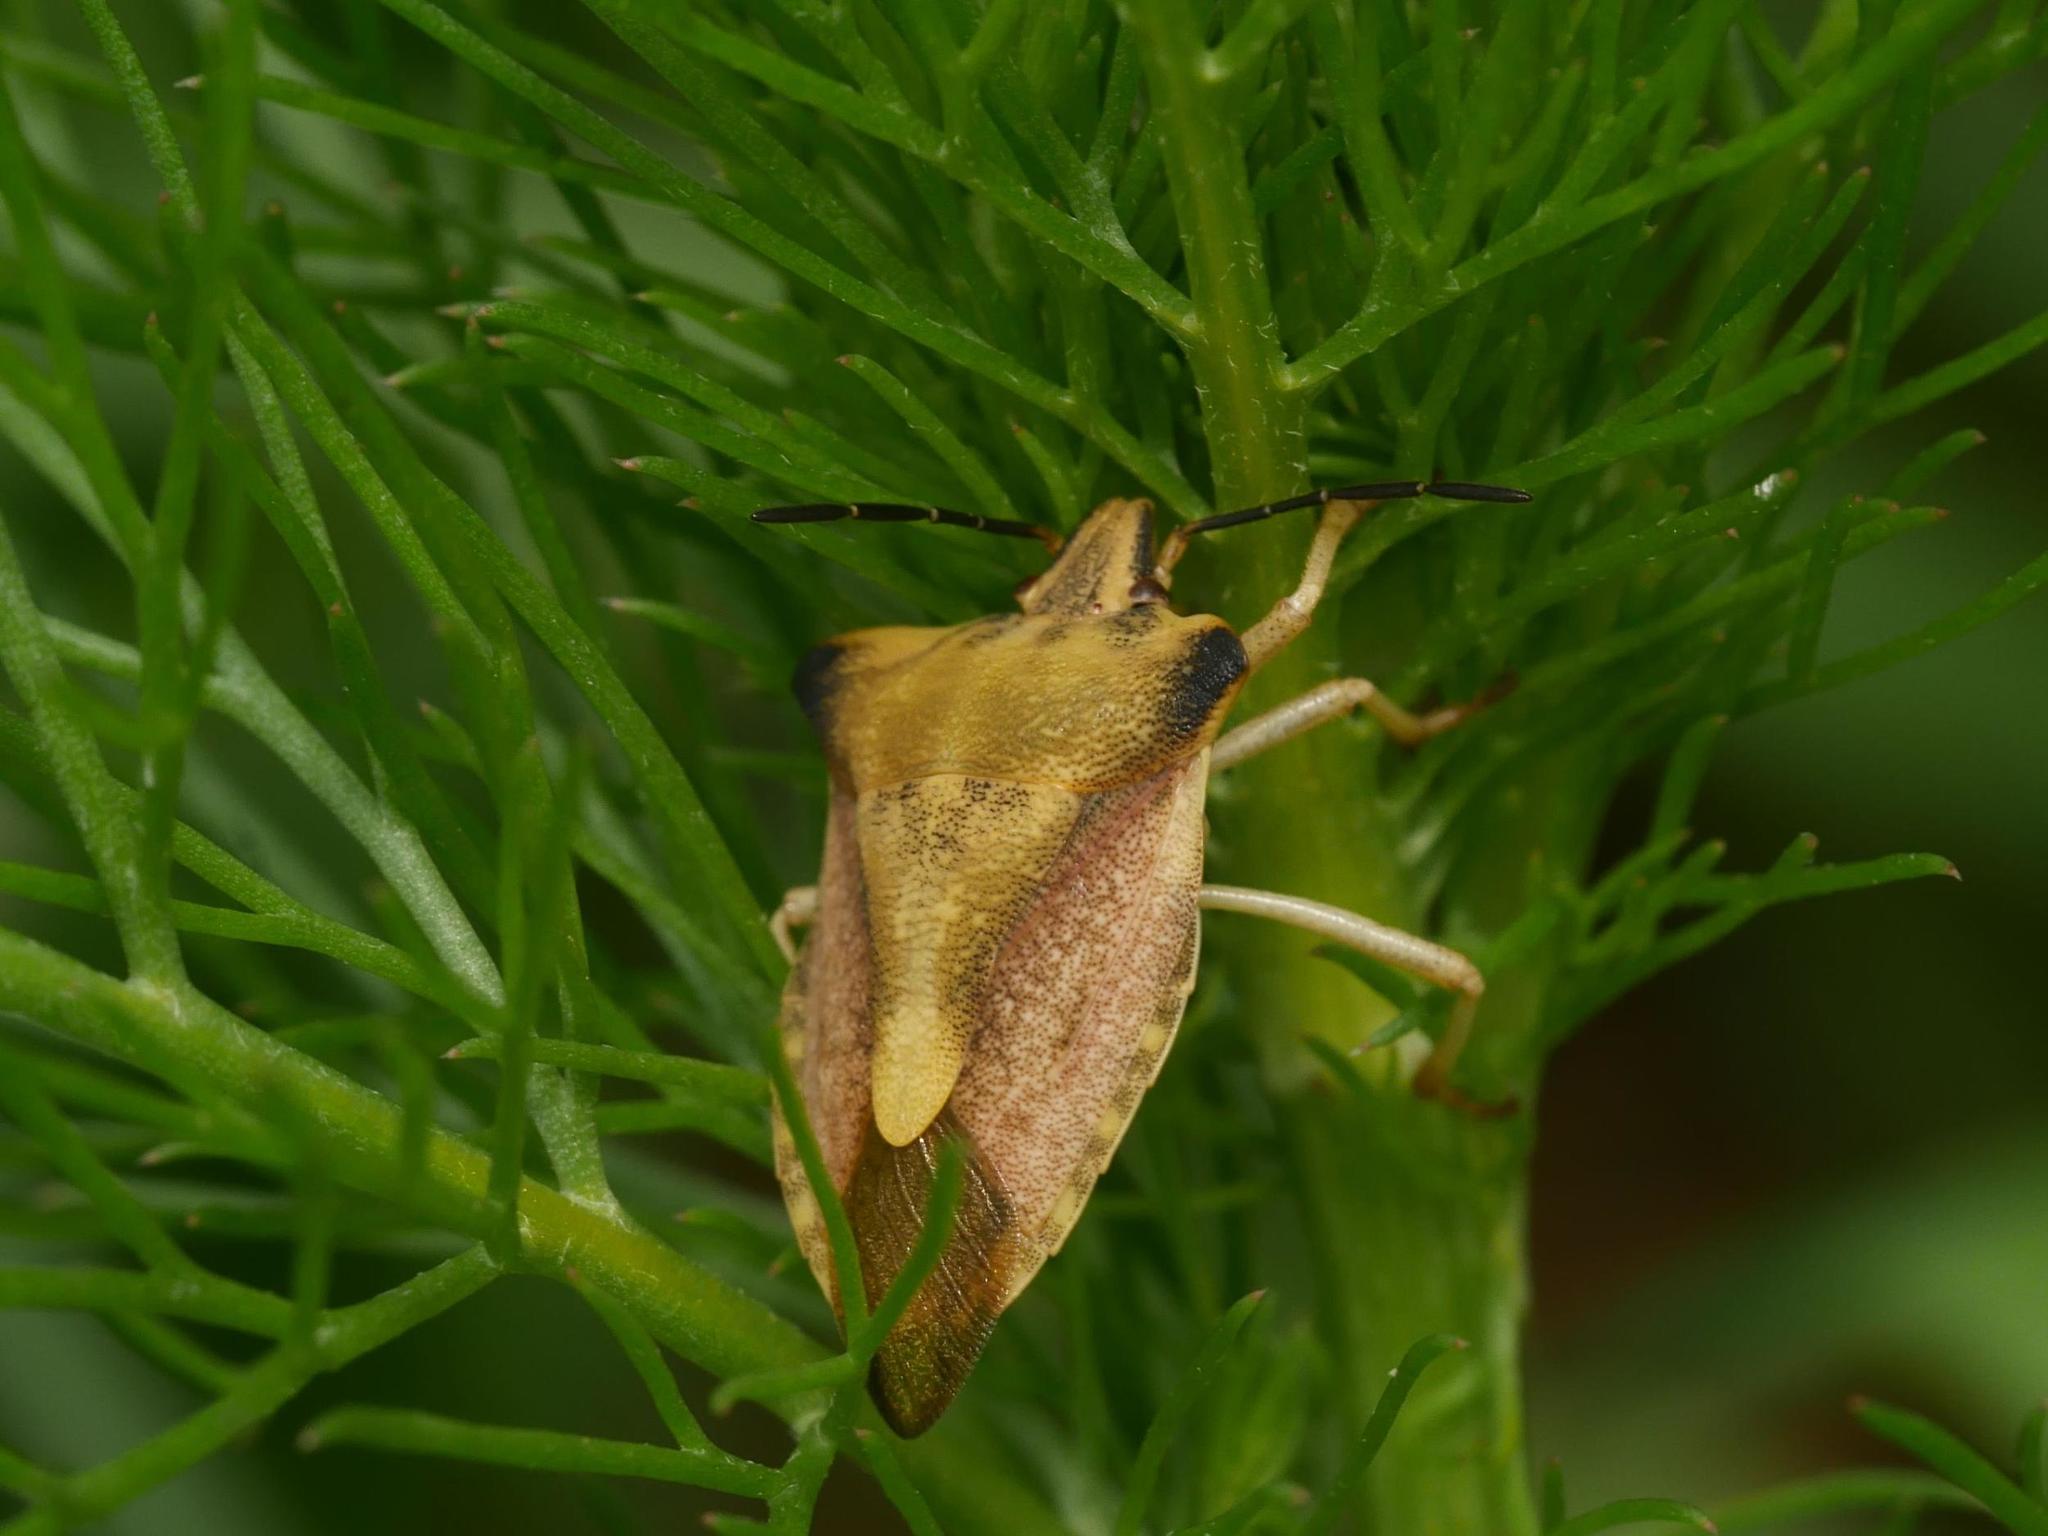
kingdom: Animalia
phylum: Arthropoda
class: Insecta
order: Hemiptera
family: Pentatomidae
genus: Carpocoris
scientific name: Carpocoris fuscispinus
